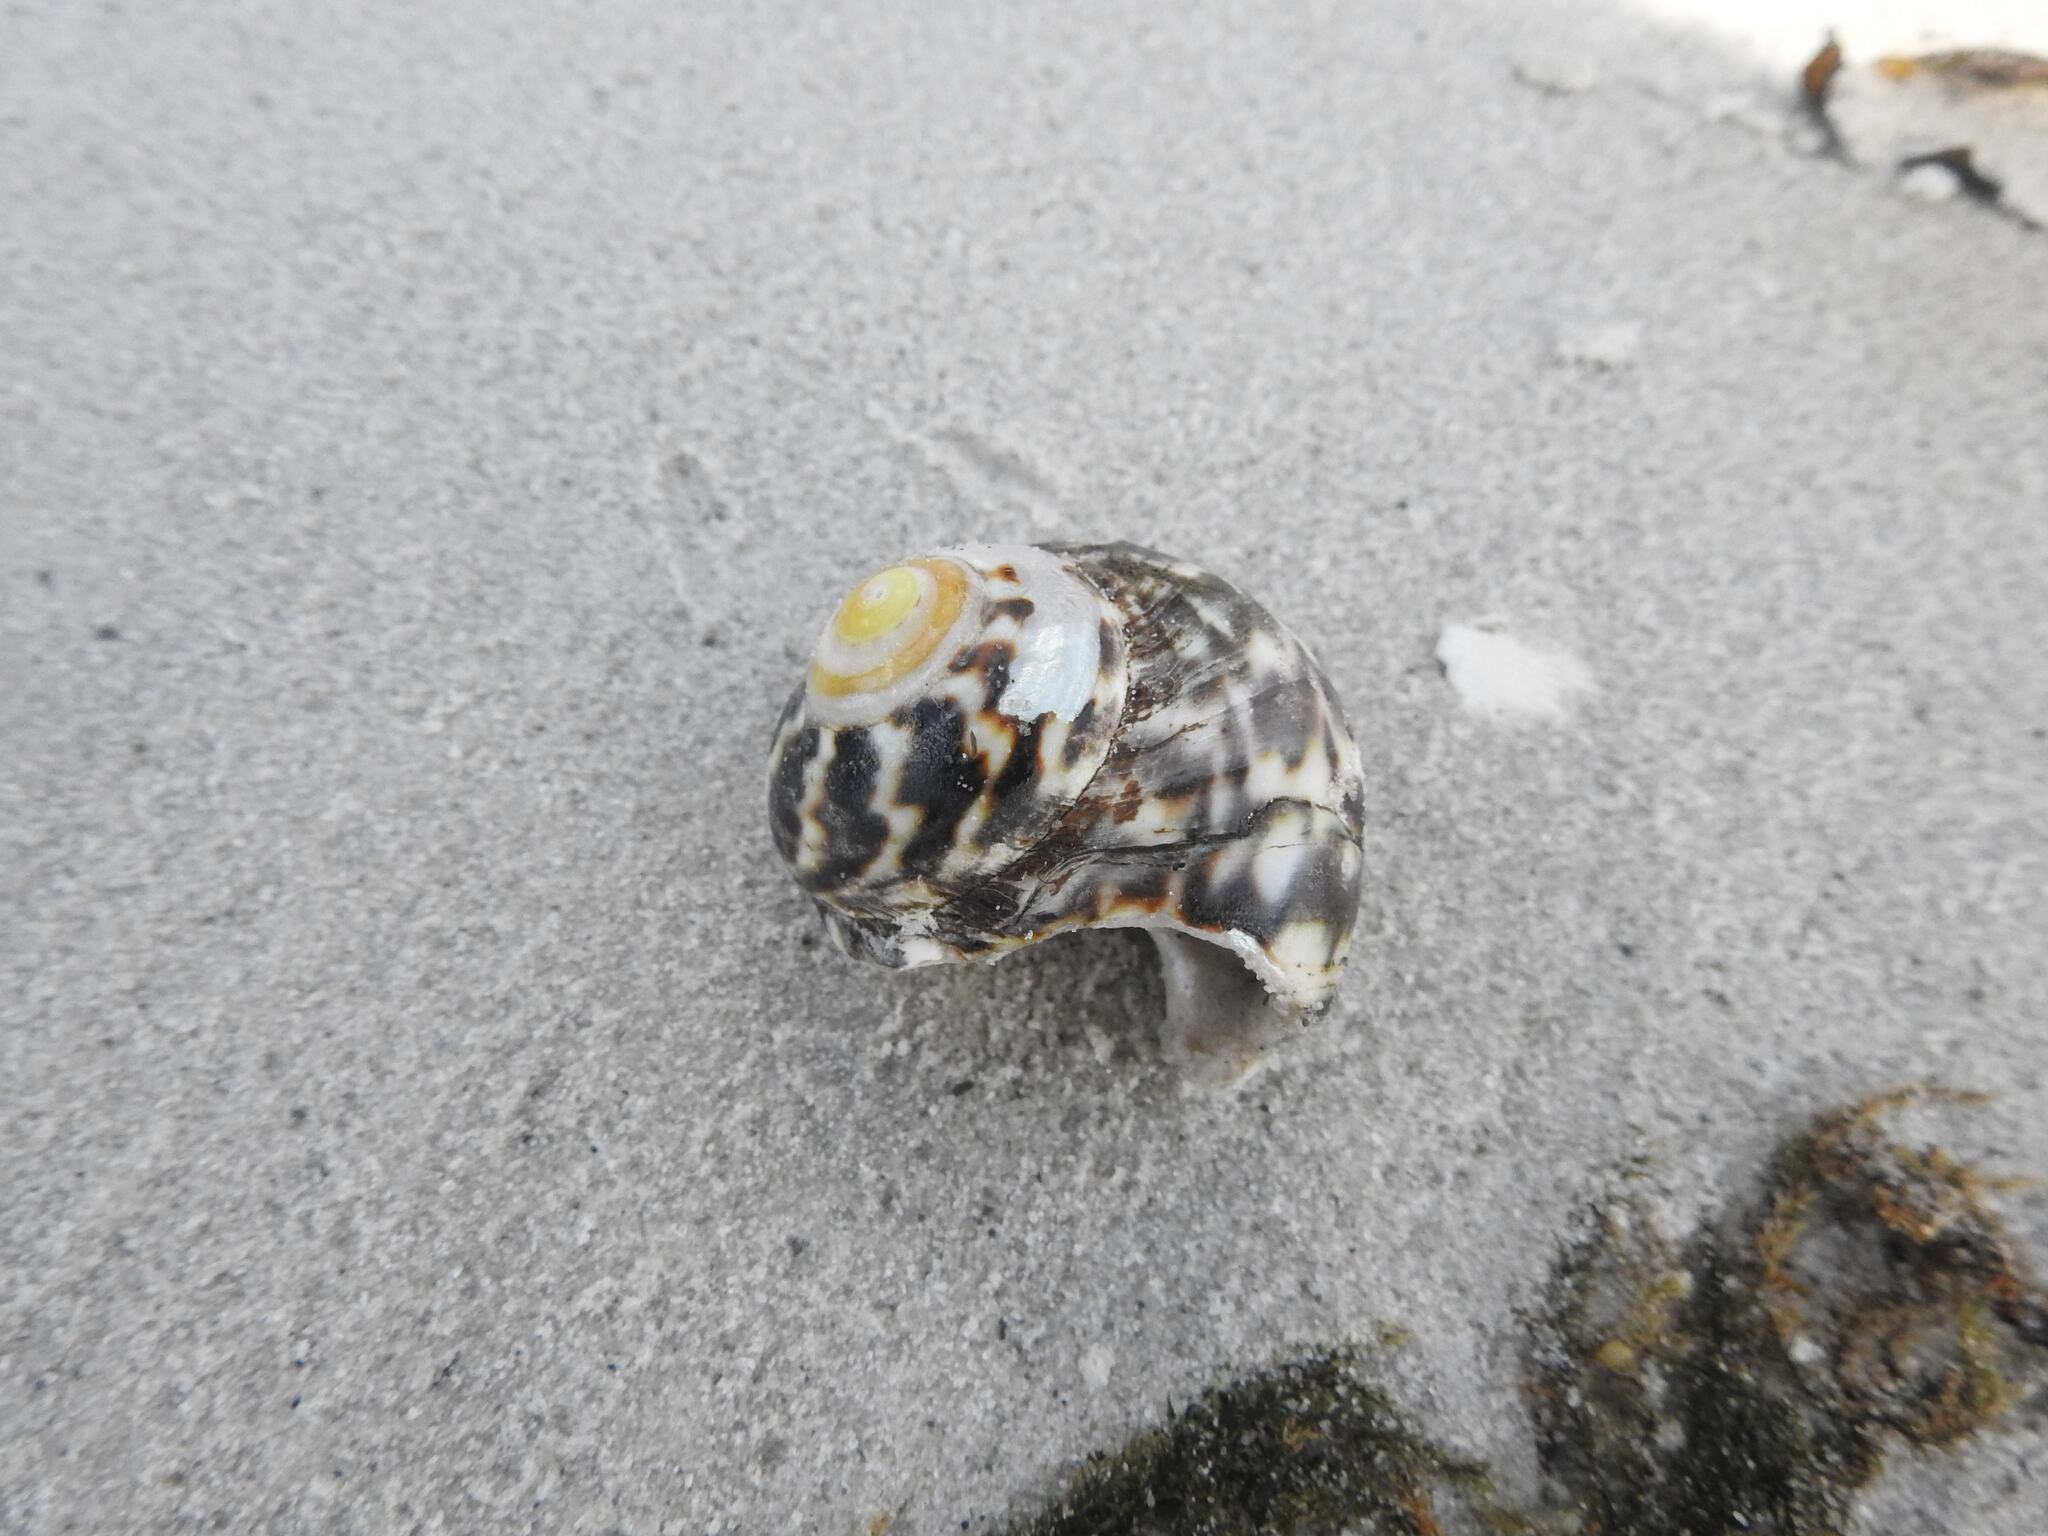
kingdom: Animalia
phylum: Mollusca
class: Gastropoda
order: Trochida
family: Turbinidae
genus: Lunella
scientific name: Lunella undulata
